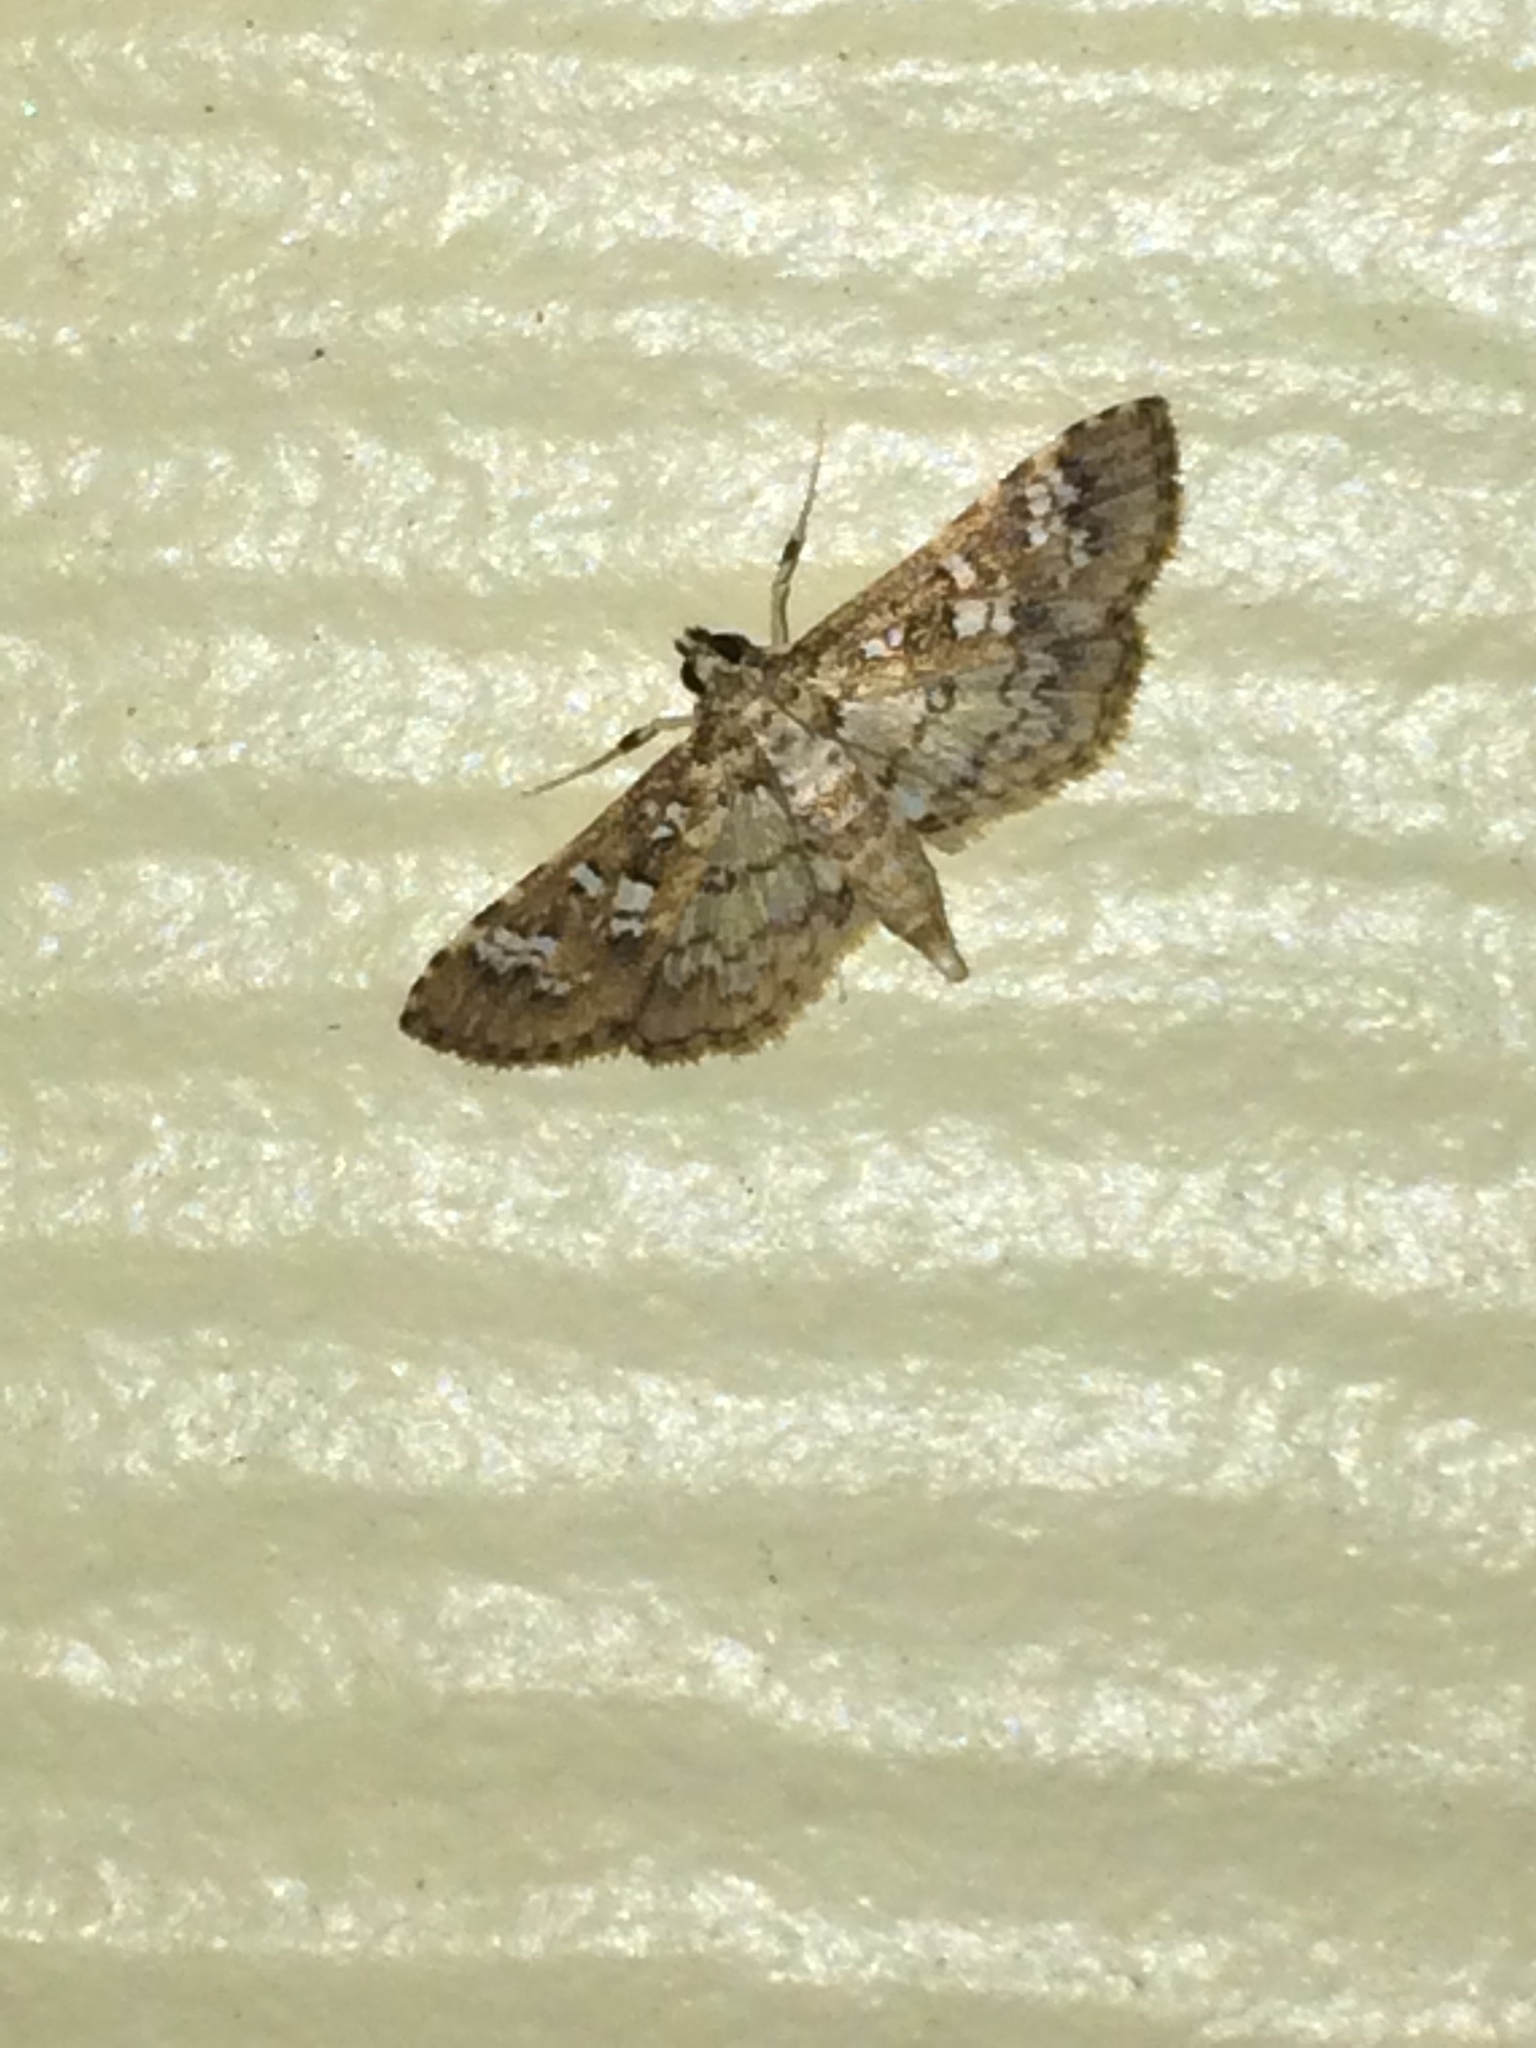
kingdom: Animalia
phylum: Arthropoda
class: Insecta
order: Lepidoptera
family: Crambidae
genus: Samea
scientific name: Samea multiplicalis
